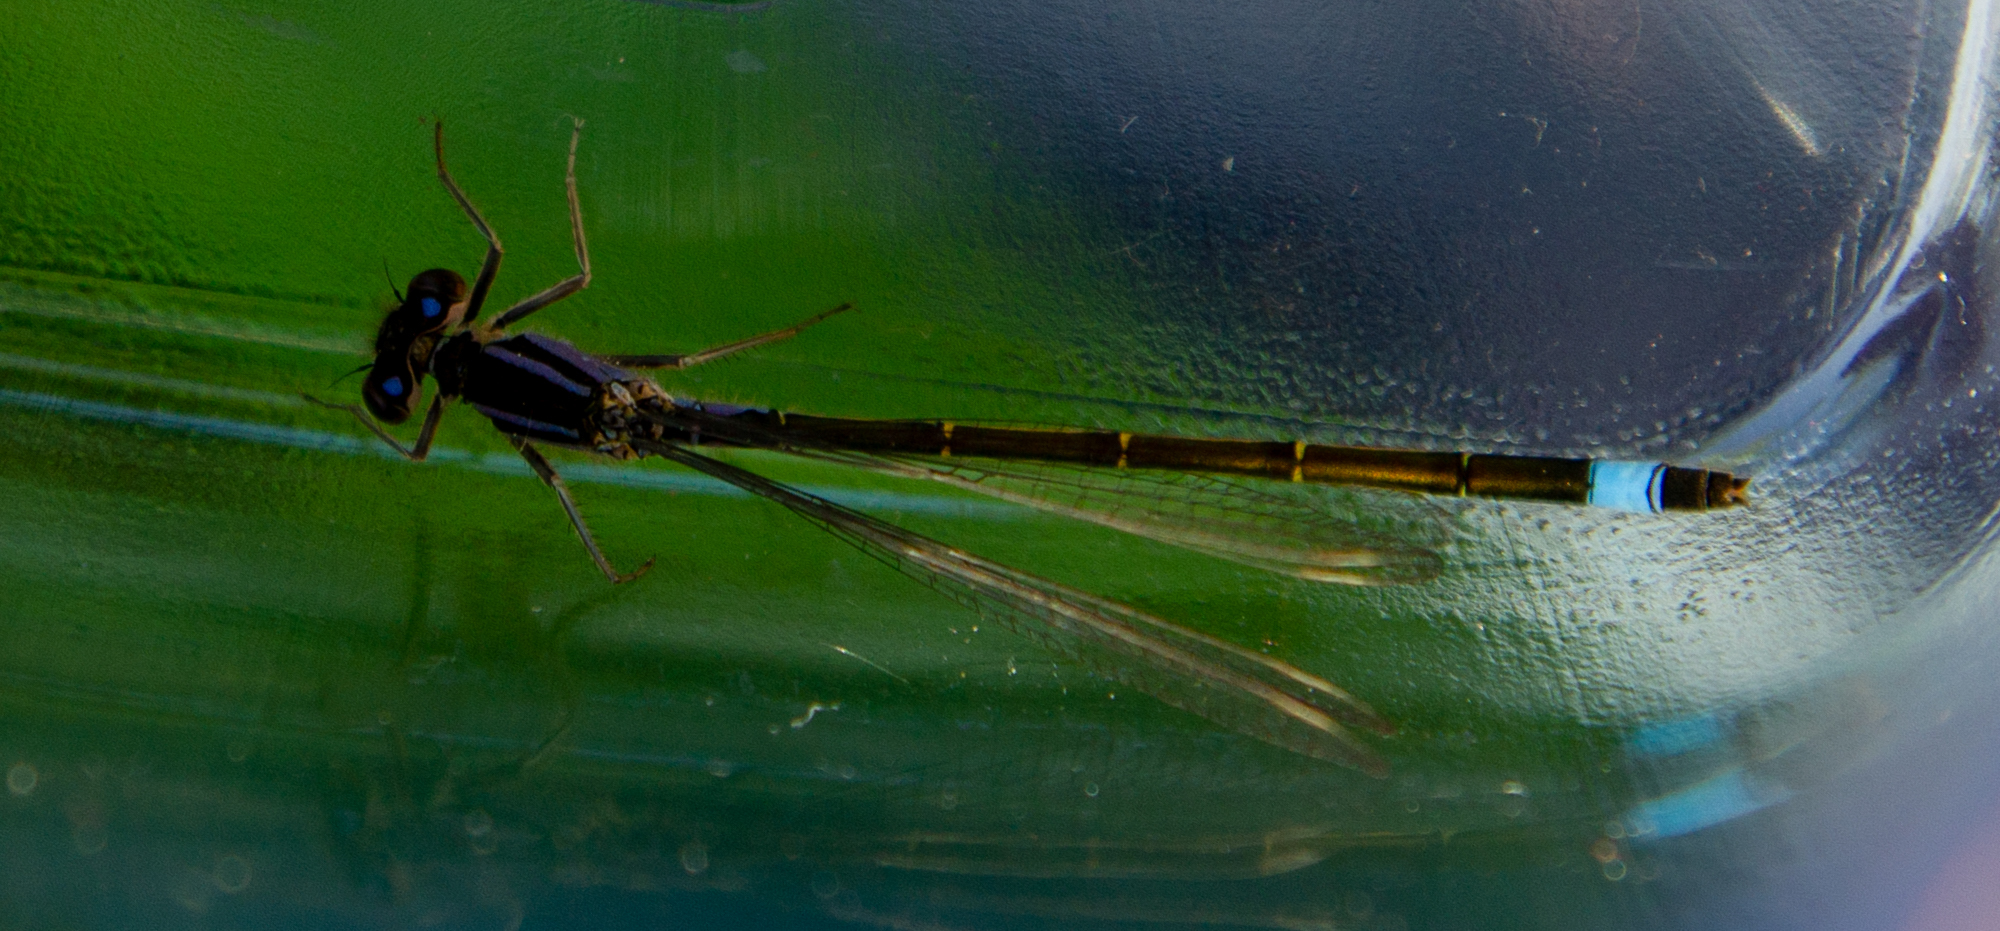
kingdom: Animalia
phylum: Arthropoda
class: Insecta
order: Odonata
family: Coenagrionidae
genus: Ischnura
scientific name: Ischnura elegans
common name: Blue-tailed damselfly
